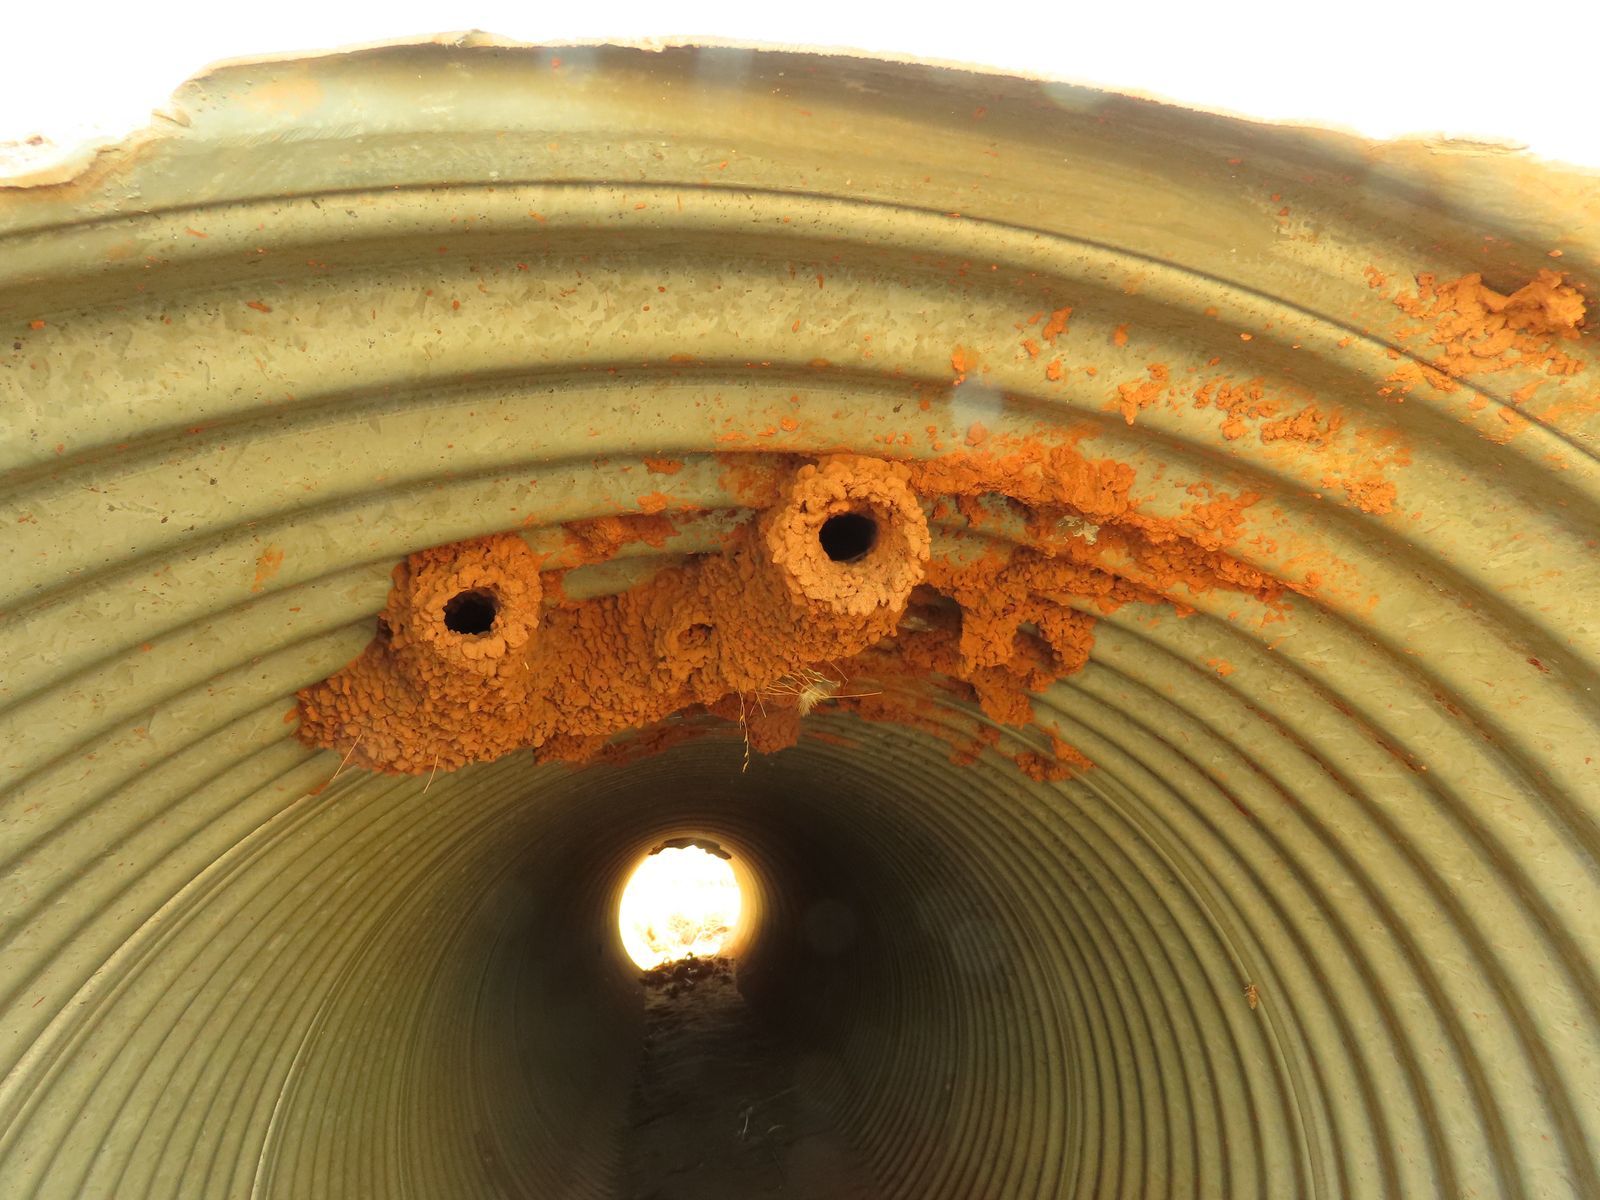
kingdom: Animalia
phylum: Chordata
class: Aves
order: Passeriformes
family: Hirundinidae
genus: Petrochelidon
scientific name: Petrochelidon ariel
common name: Fairy martin
